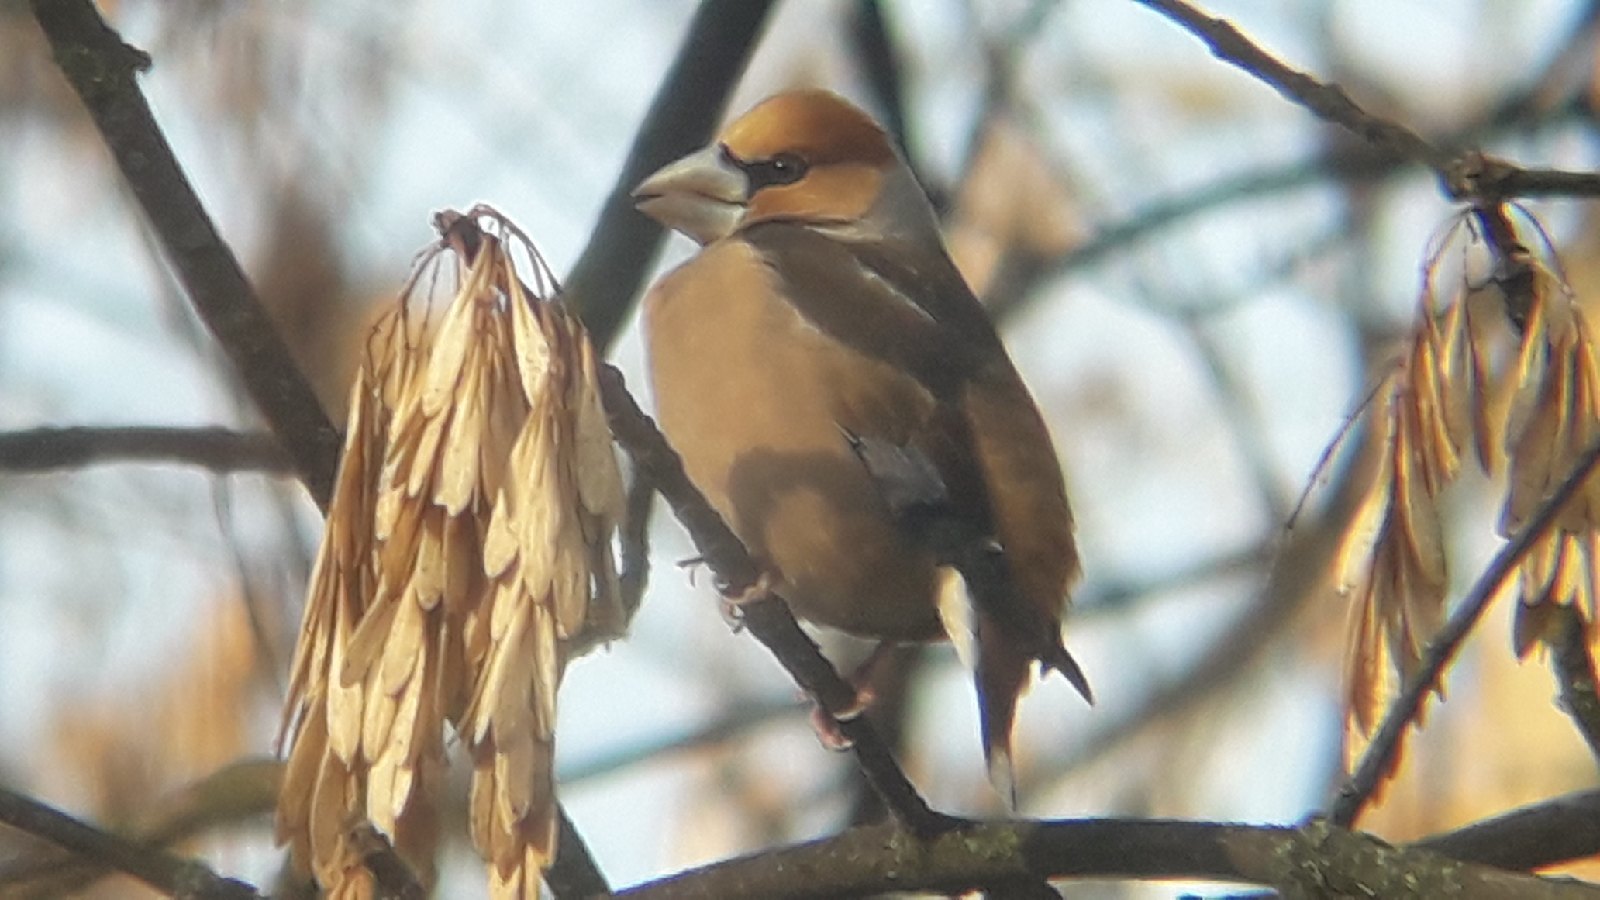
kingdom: Animalia
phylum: Chordata
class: Aves
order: Passeriformes
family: Fringillidae
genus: Coccothraustes
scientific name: Coccothraustes coccothraustes
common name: Hawfinch
